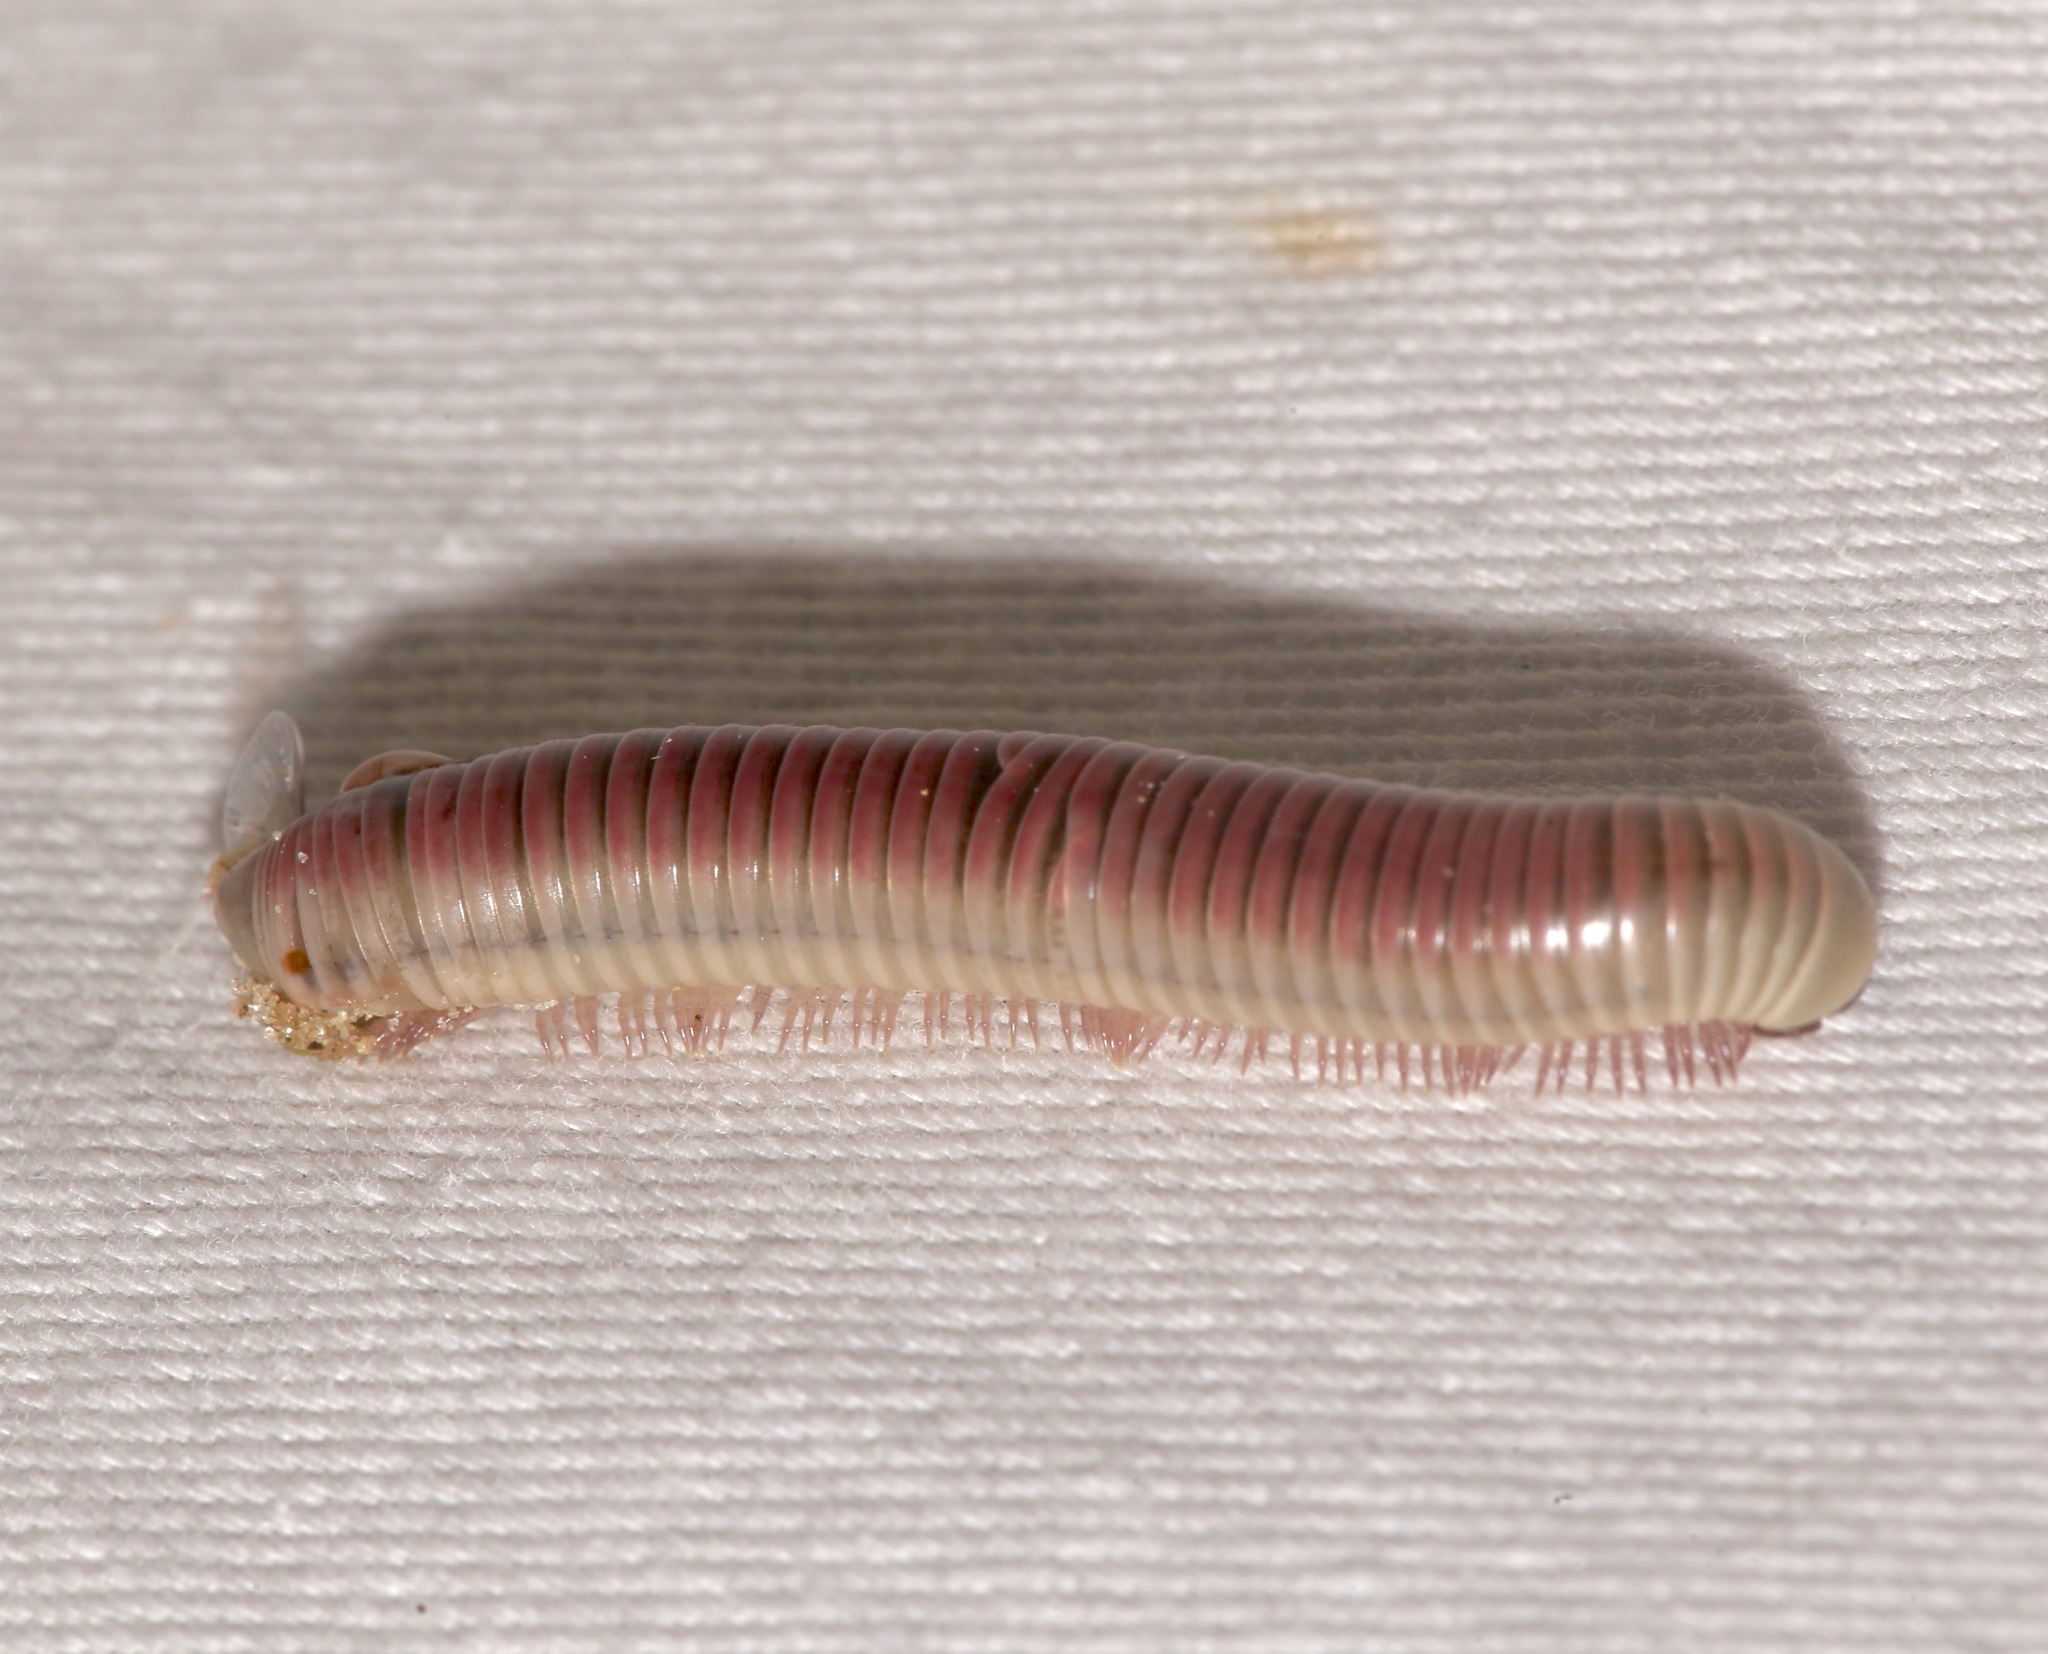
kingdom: Animalia
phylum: Arthropoda
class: Diplopoda
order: Spirobolida
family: Spirobolidae
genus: Chicobolus
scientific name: Chicobolus spinigerus
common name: Florida ivory millipede
